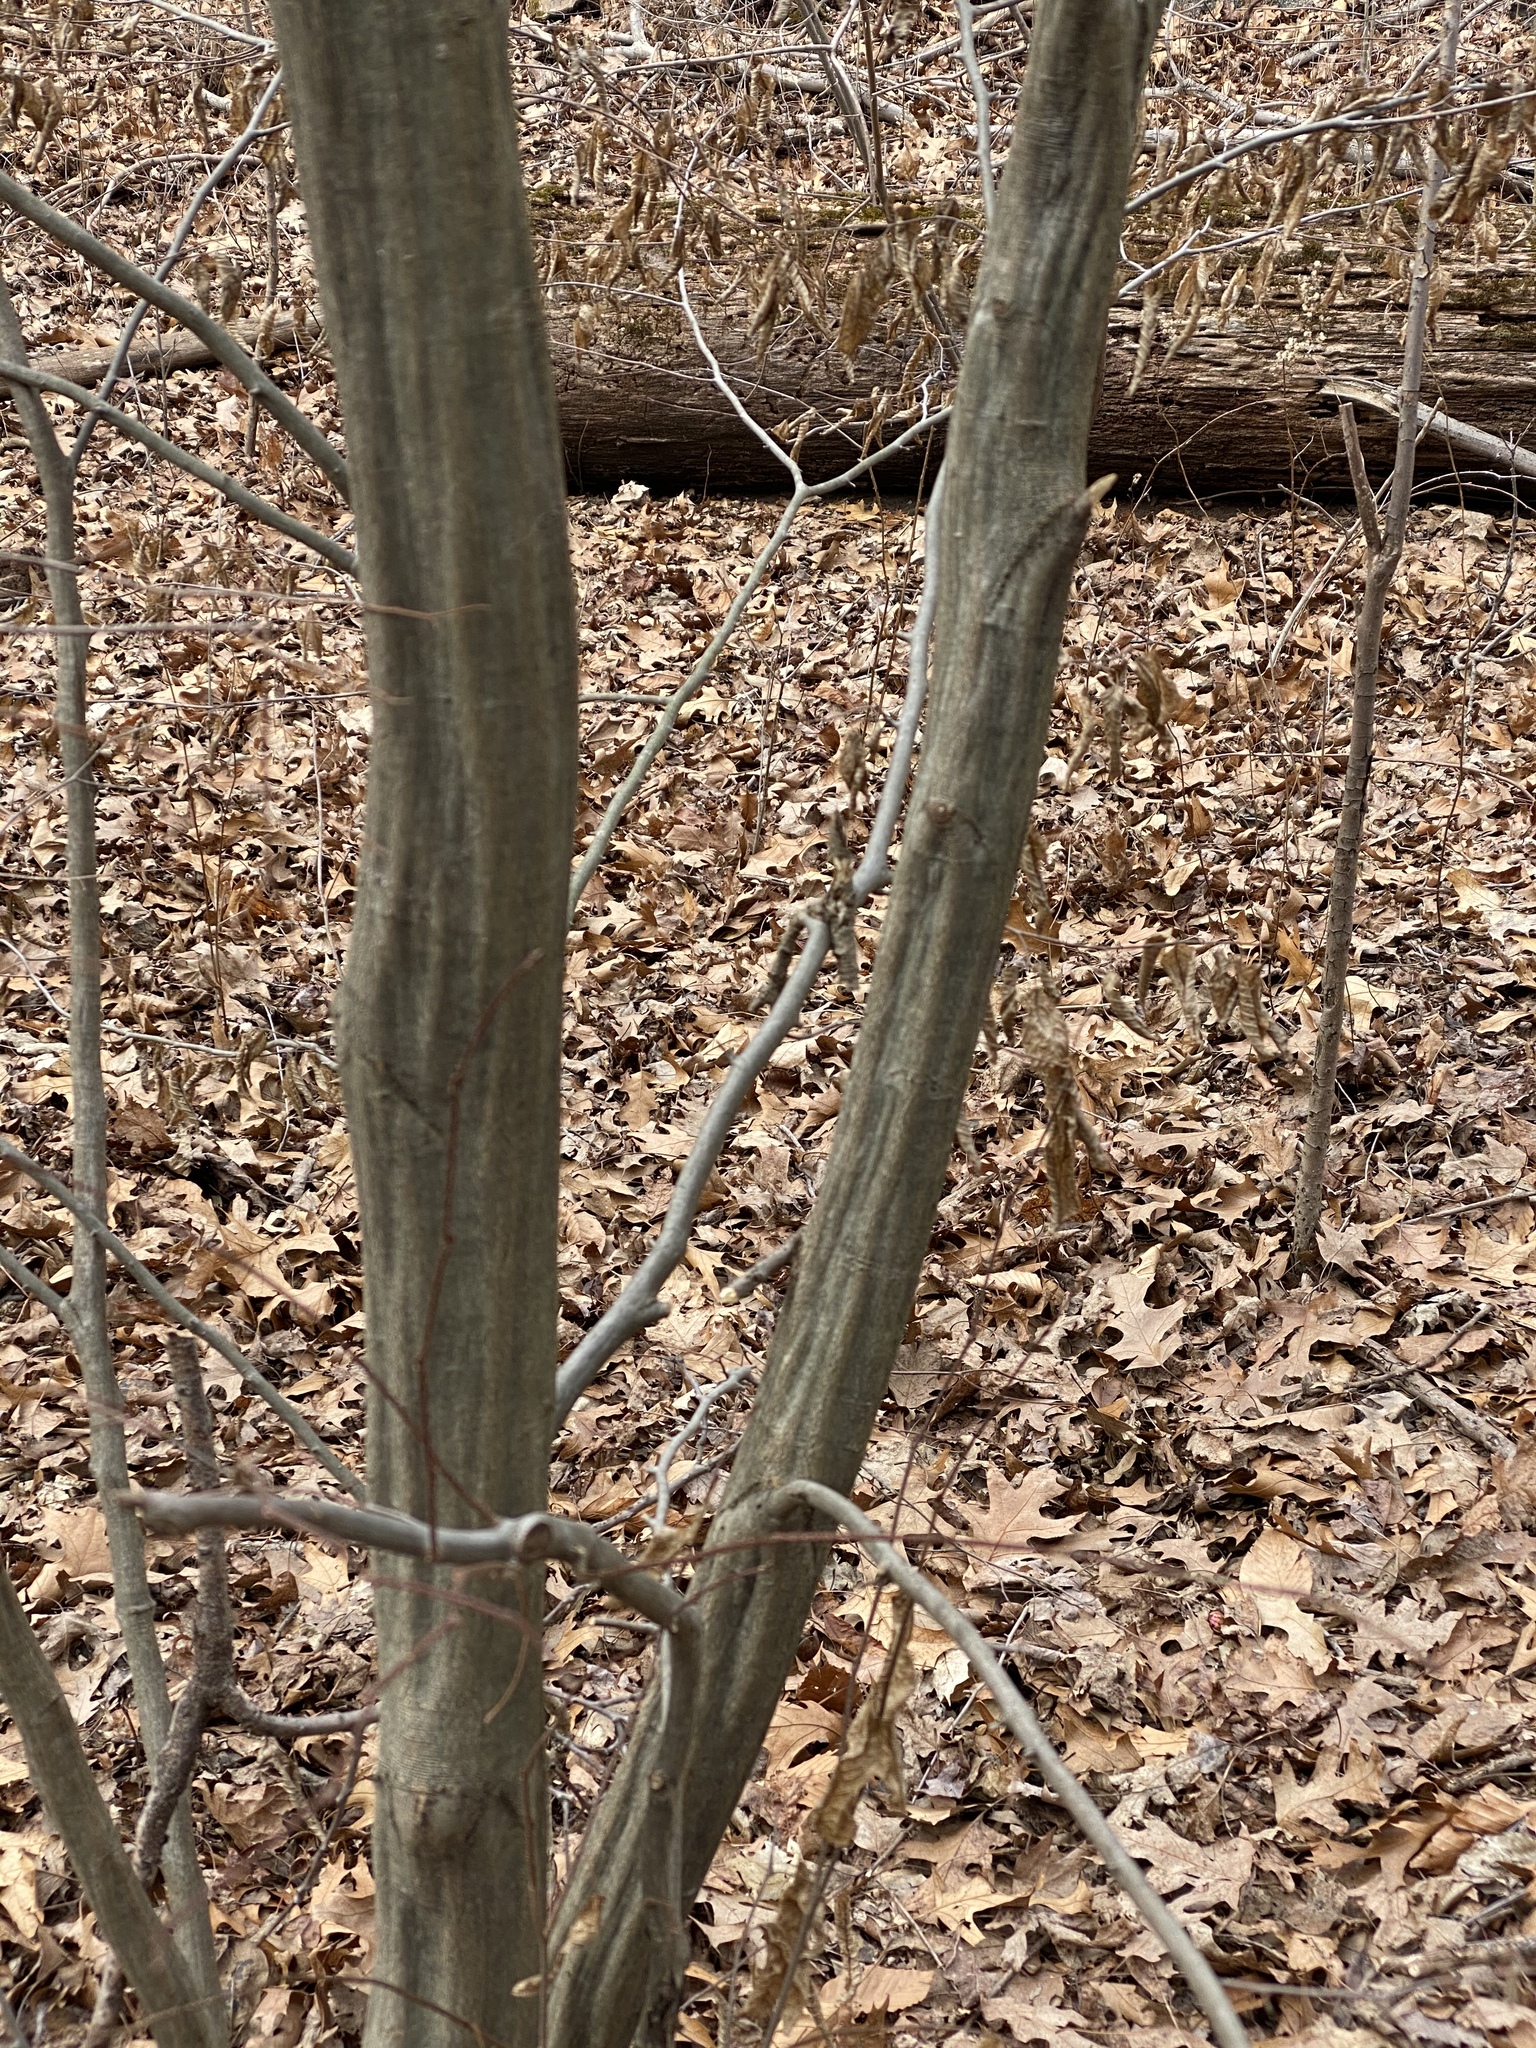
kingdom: Plantae
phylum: Tracheophyta
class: Magnoliopsida
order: Fagales
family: Betulaceae
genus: Carpinus
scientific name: Carpinus caroliniana
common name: American hornbeam
